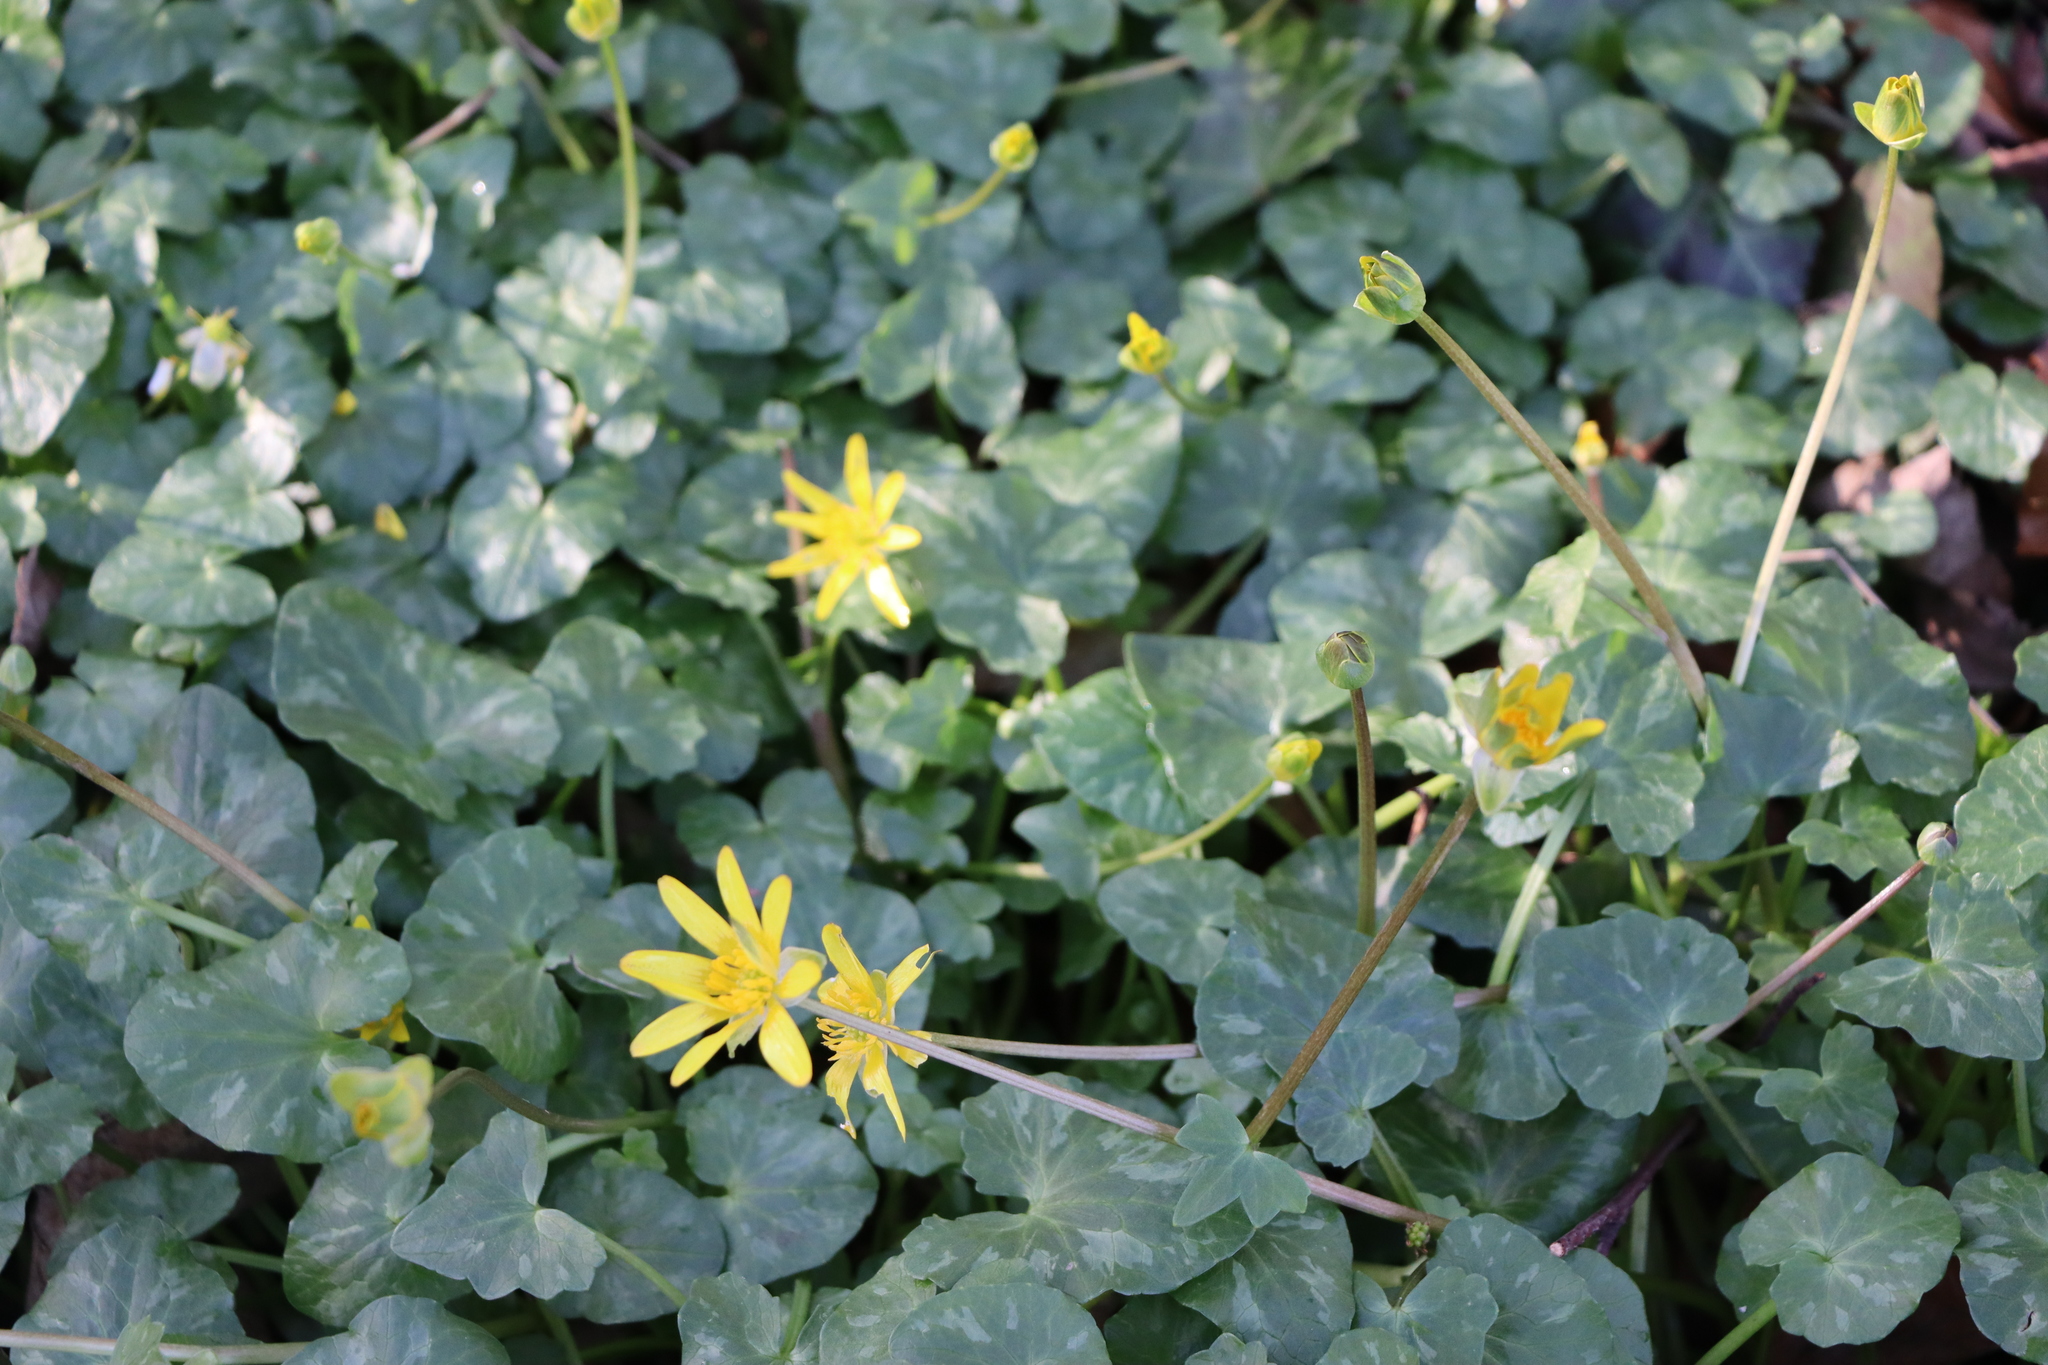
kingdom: Plantae
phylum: Tracheophyta
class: Magnoliopsida
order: Ranunculales
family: Ranunculaceae
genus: Ficaria
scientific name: Ficaria verna
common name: Lesser celandine
